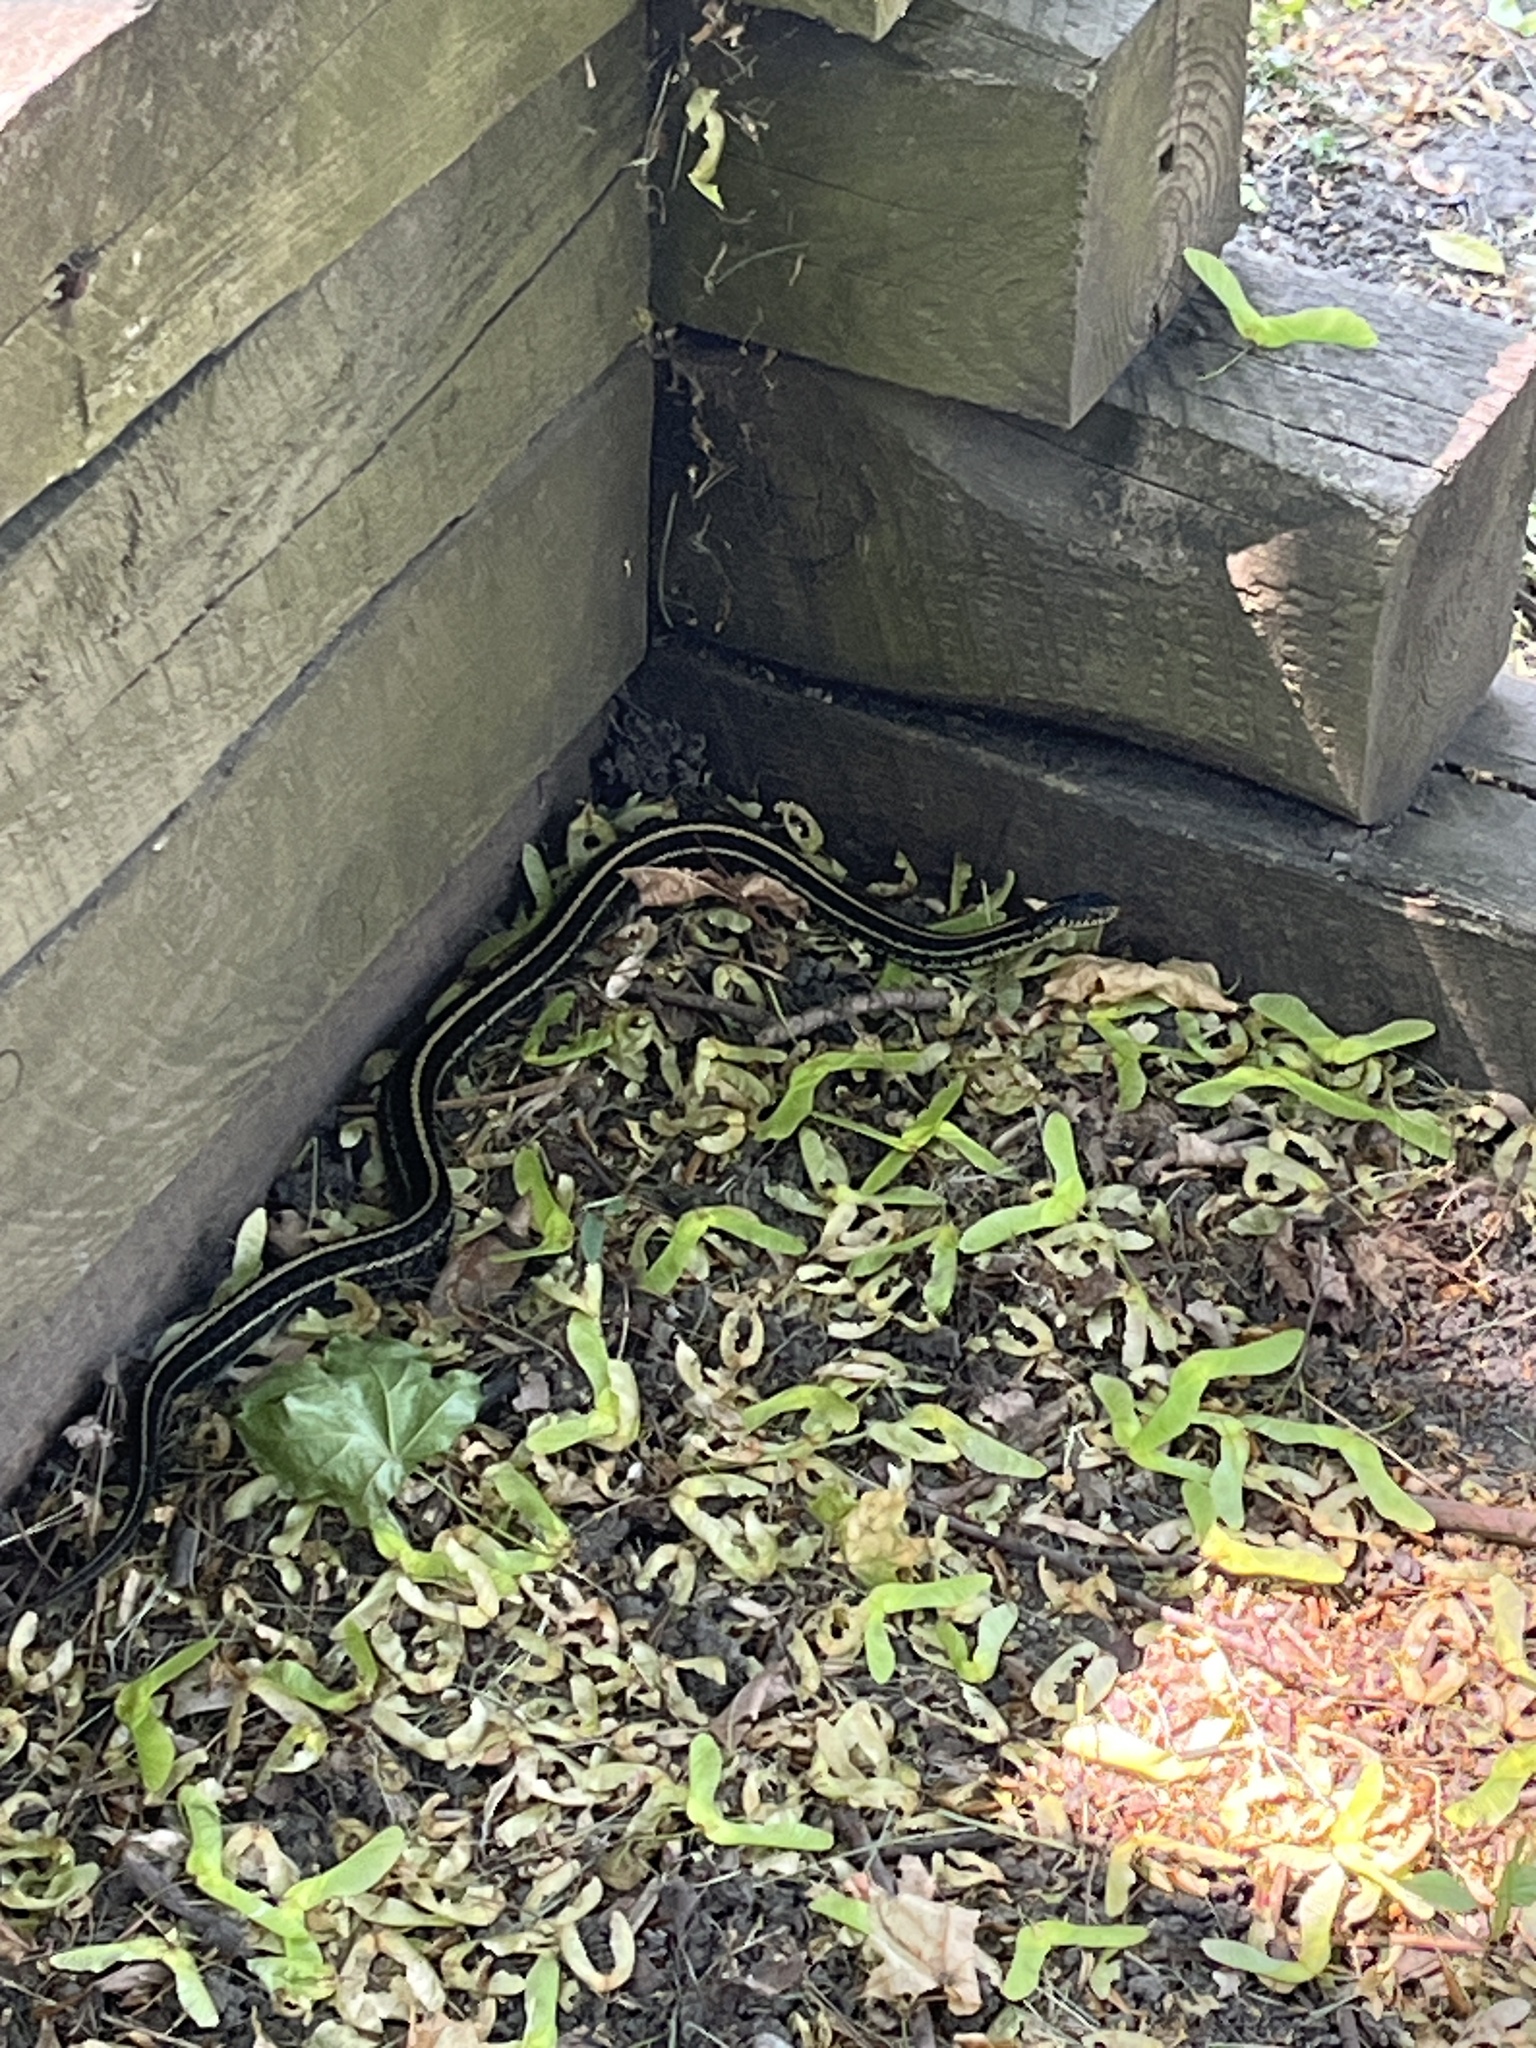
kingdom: Animalia
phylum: Chordata
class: Squamata
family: Colubridae
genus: Thamnophis
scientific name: Thamnophis radix
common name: Plains garter snake
